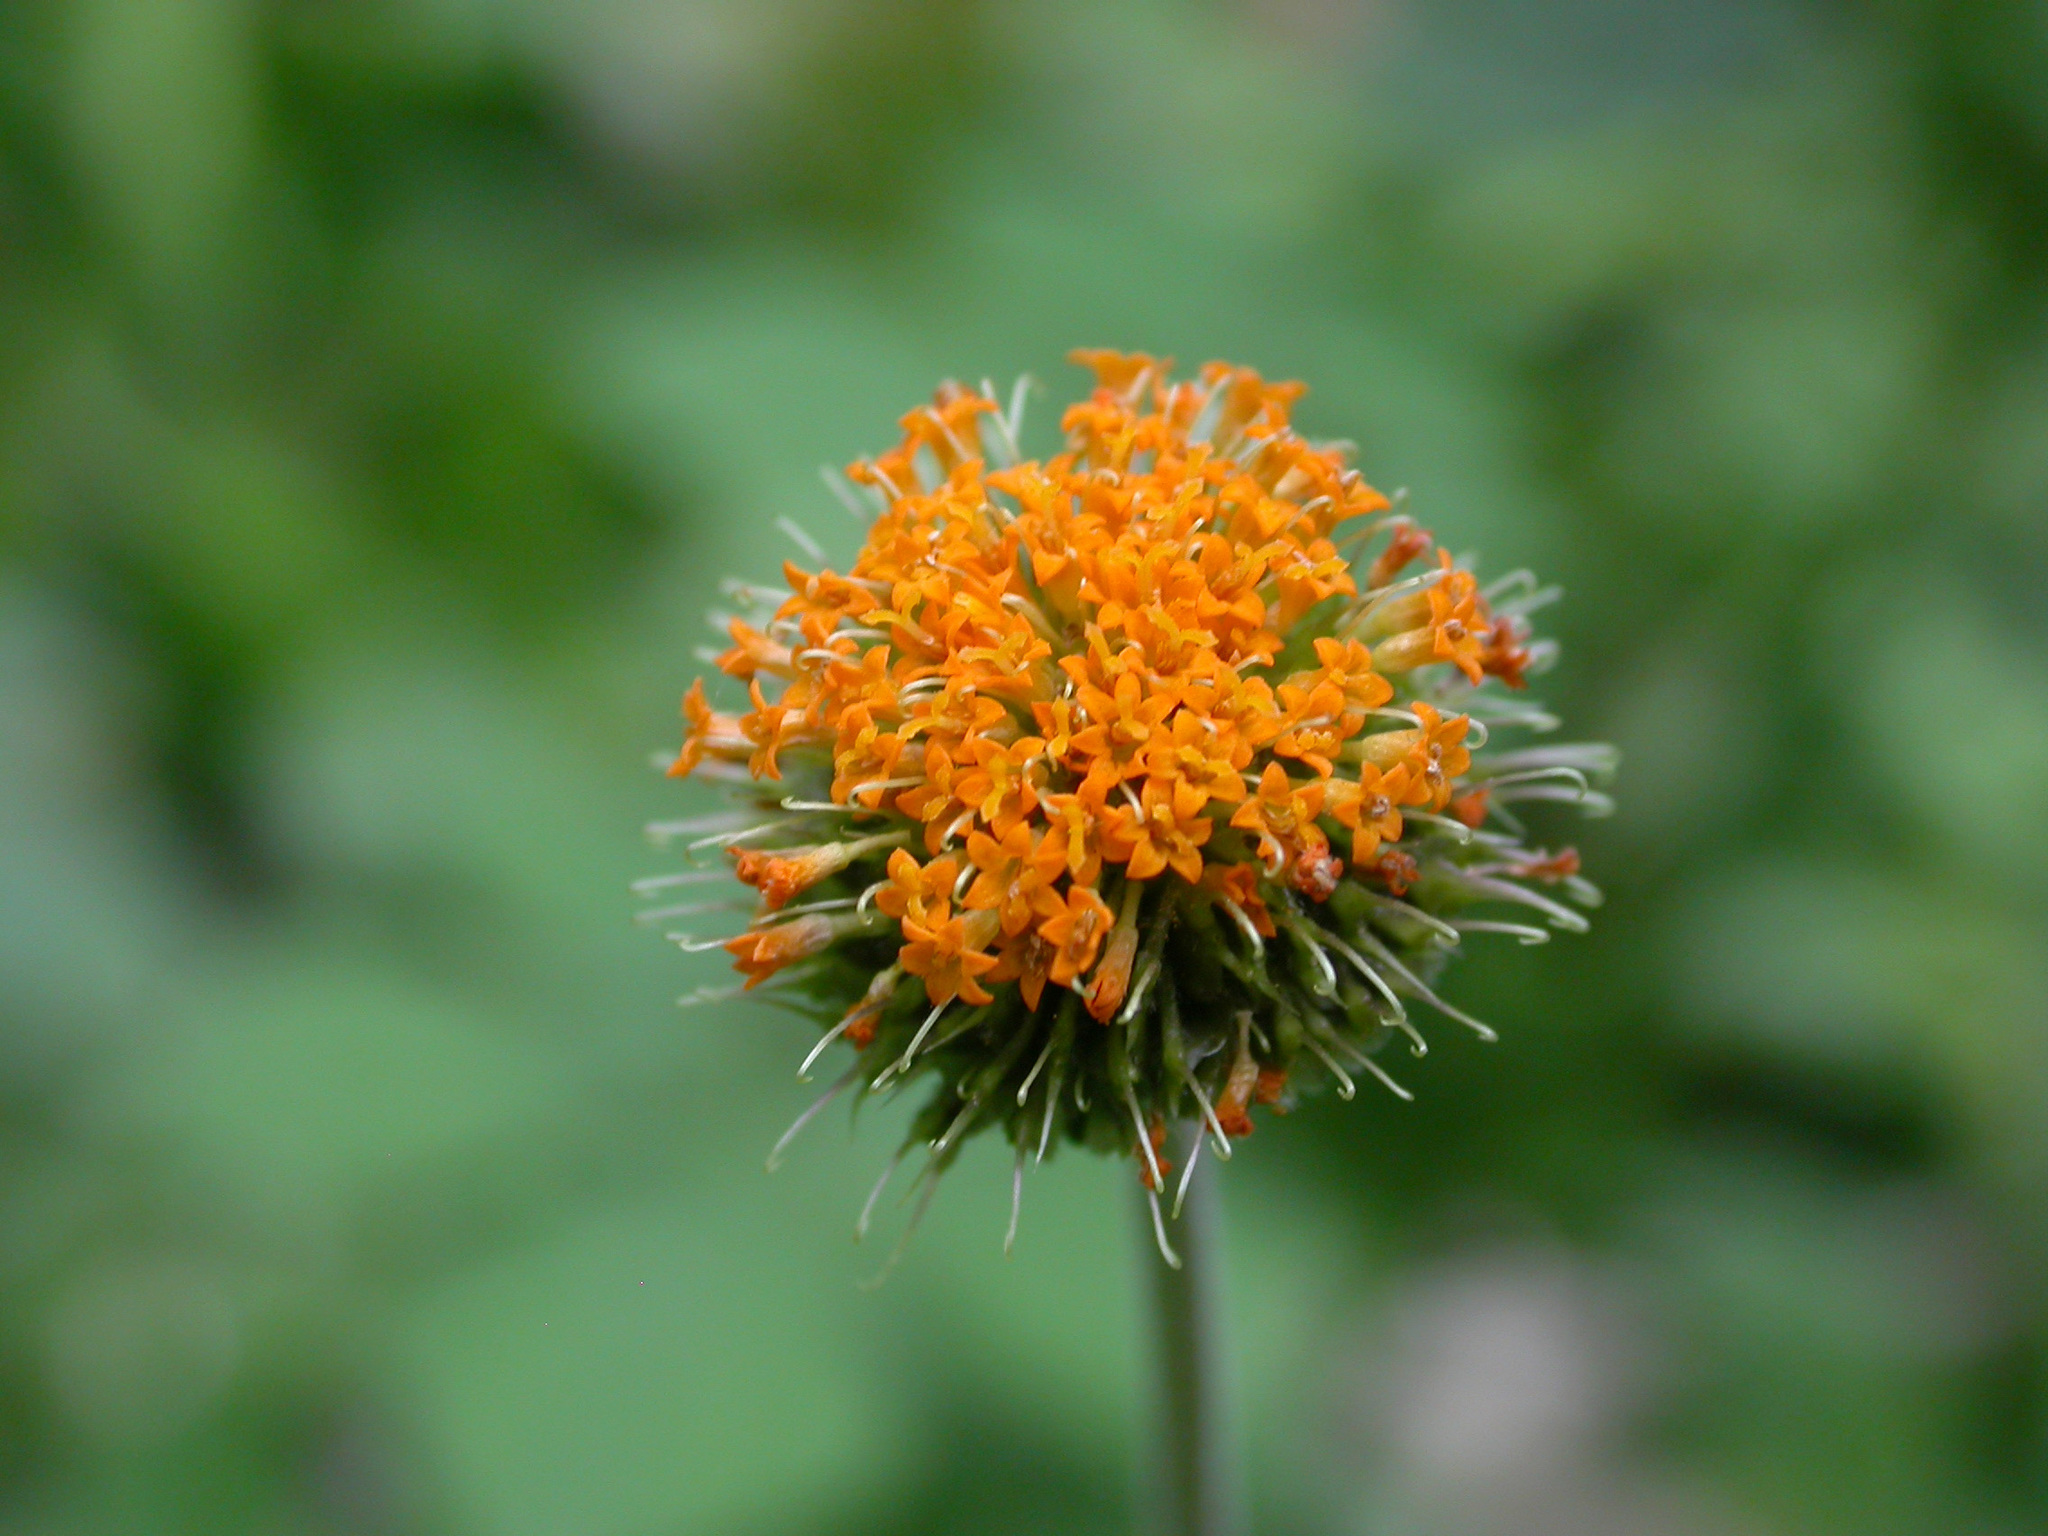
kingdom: Plantae
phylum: Tracheophyta
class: Magnoliopsida
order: Asterales
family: Asteraceae
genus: Verbesina
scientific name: Verbesina alata
